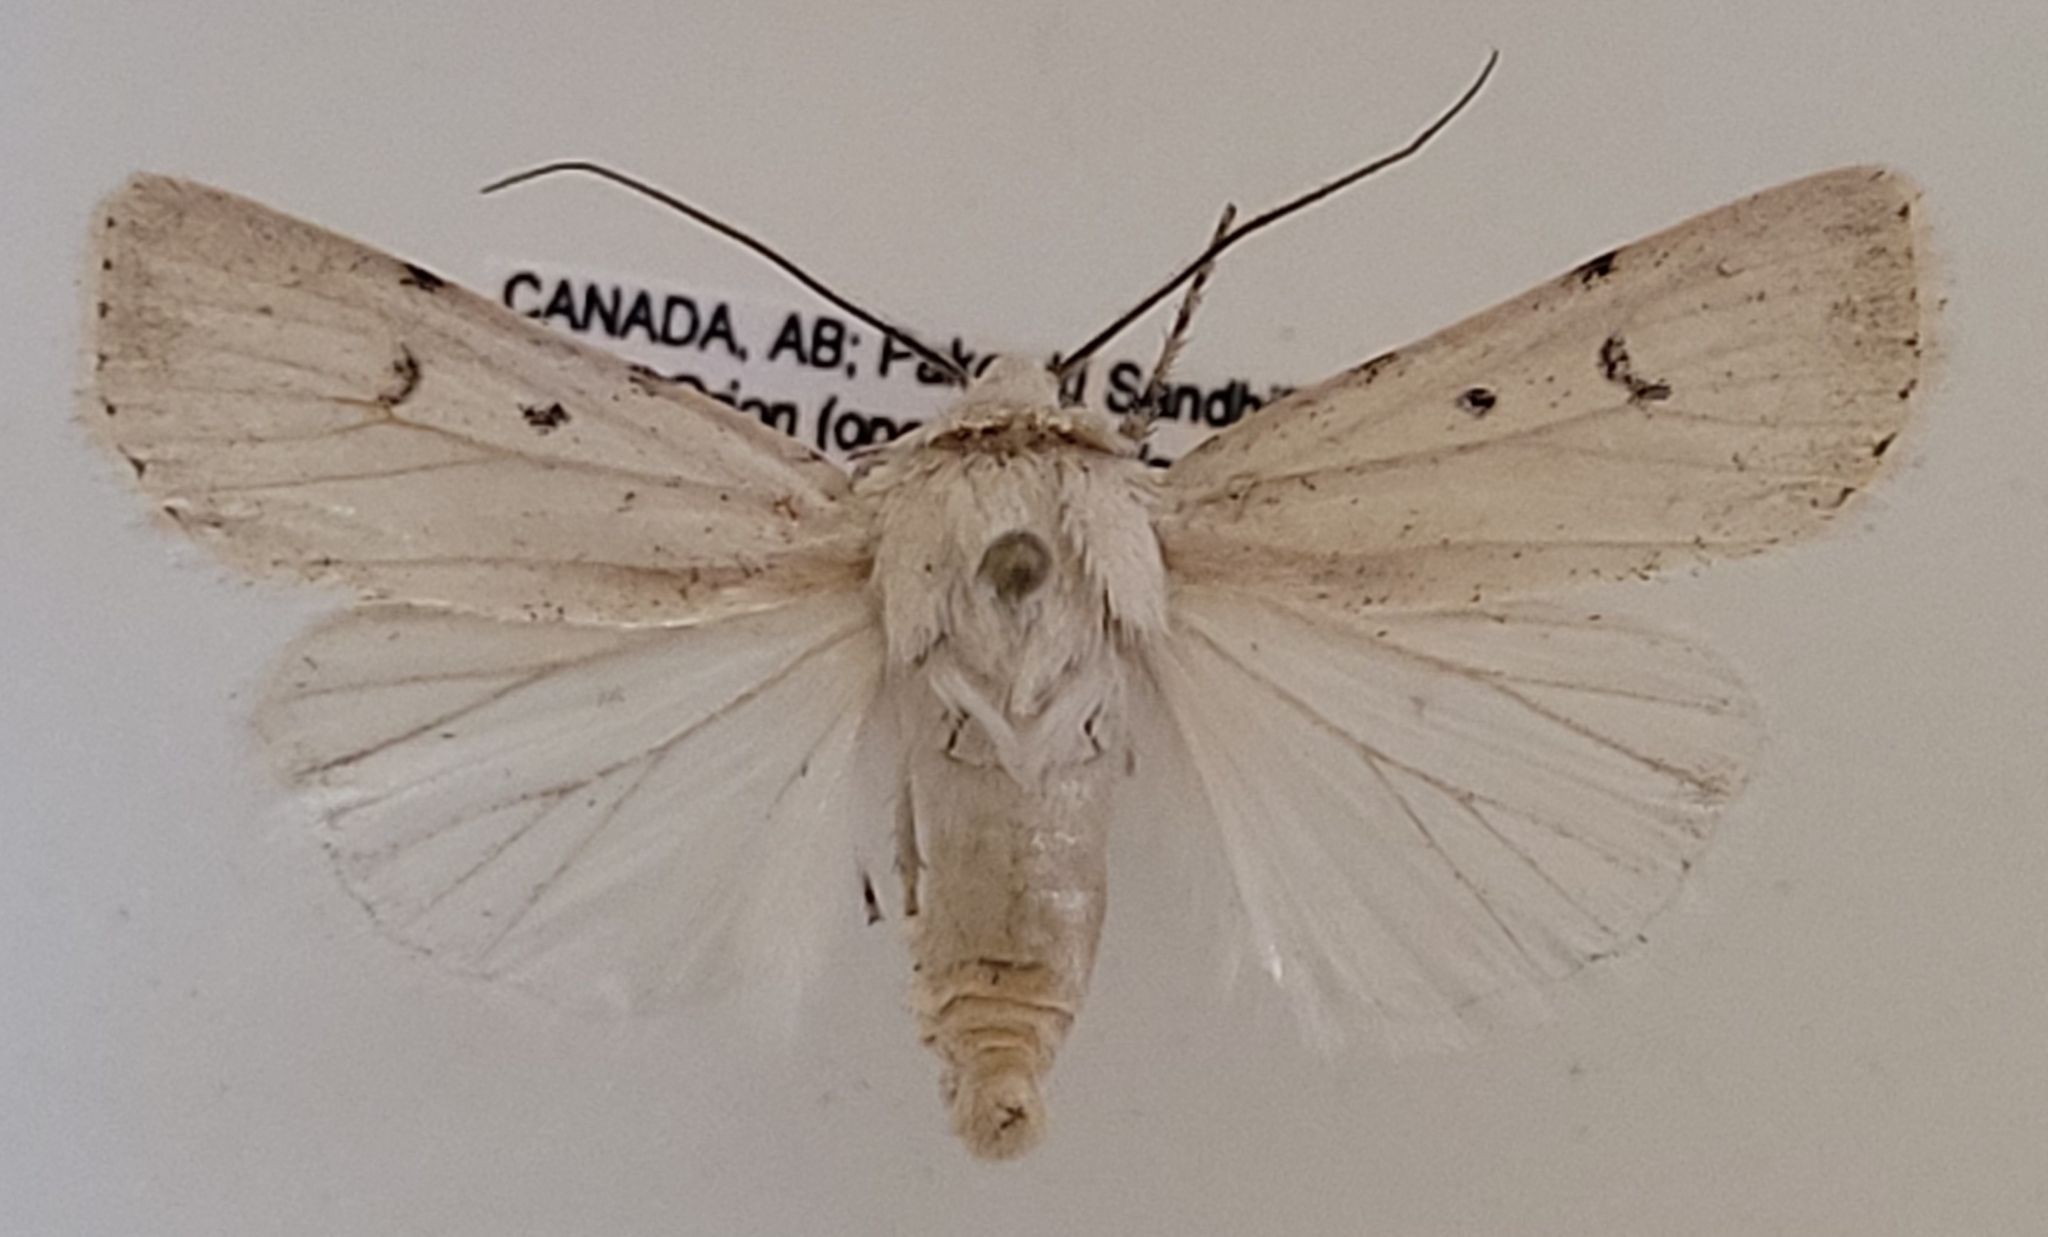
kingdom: Animalia
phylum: Arthropoda
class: Insecta
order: Lepidoptera
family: Noctuidae
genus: Euxoa
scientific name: Euxoa catenula
